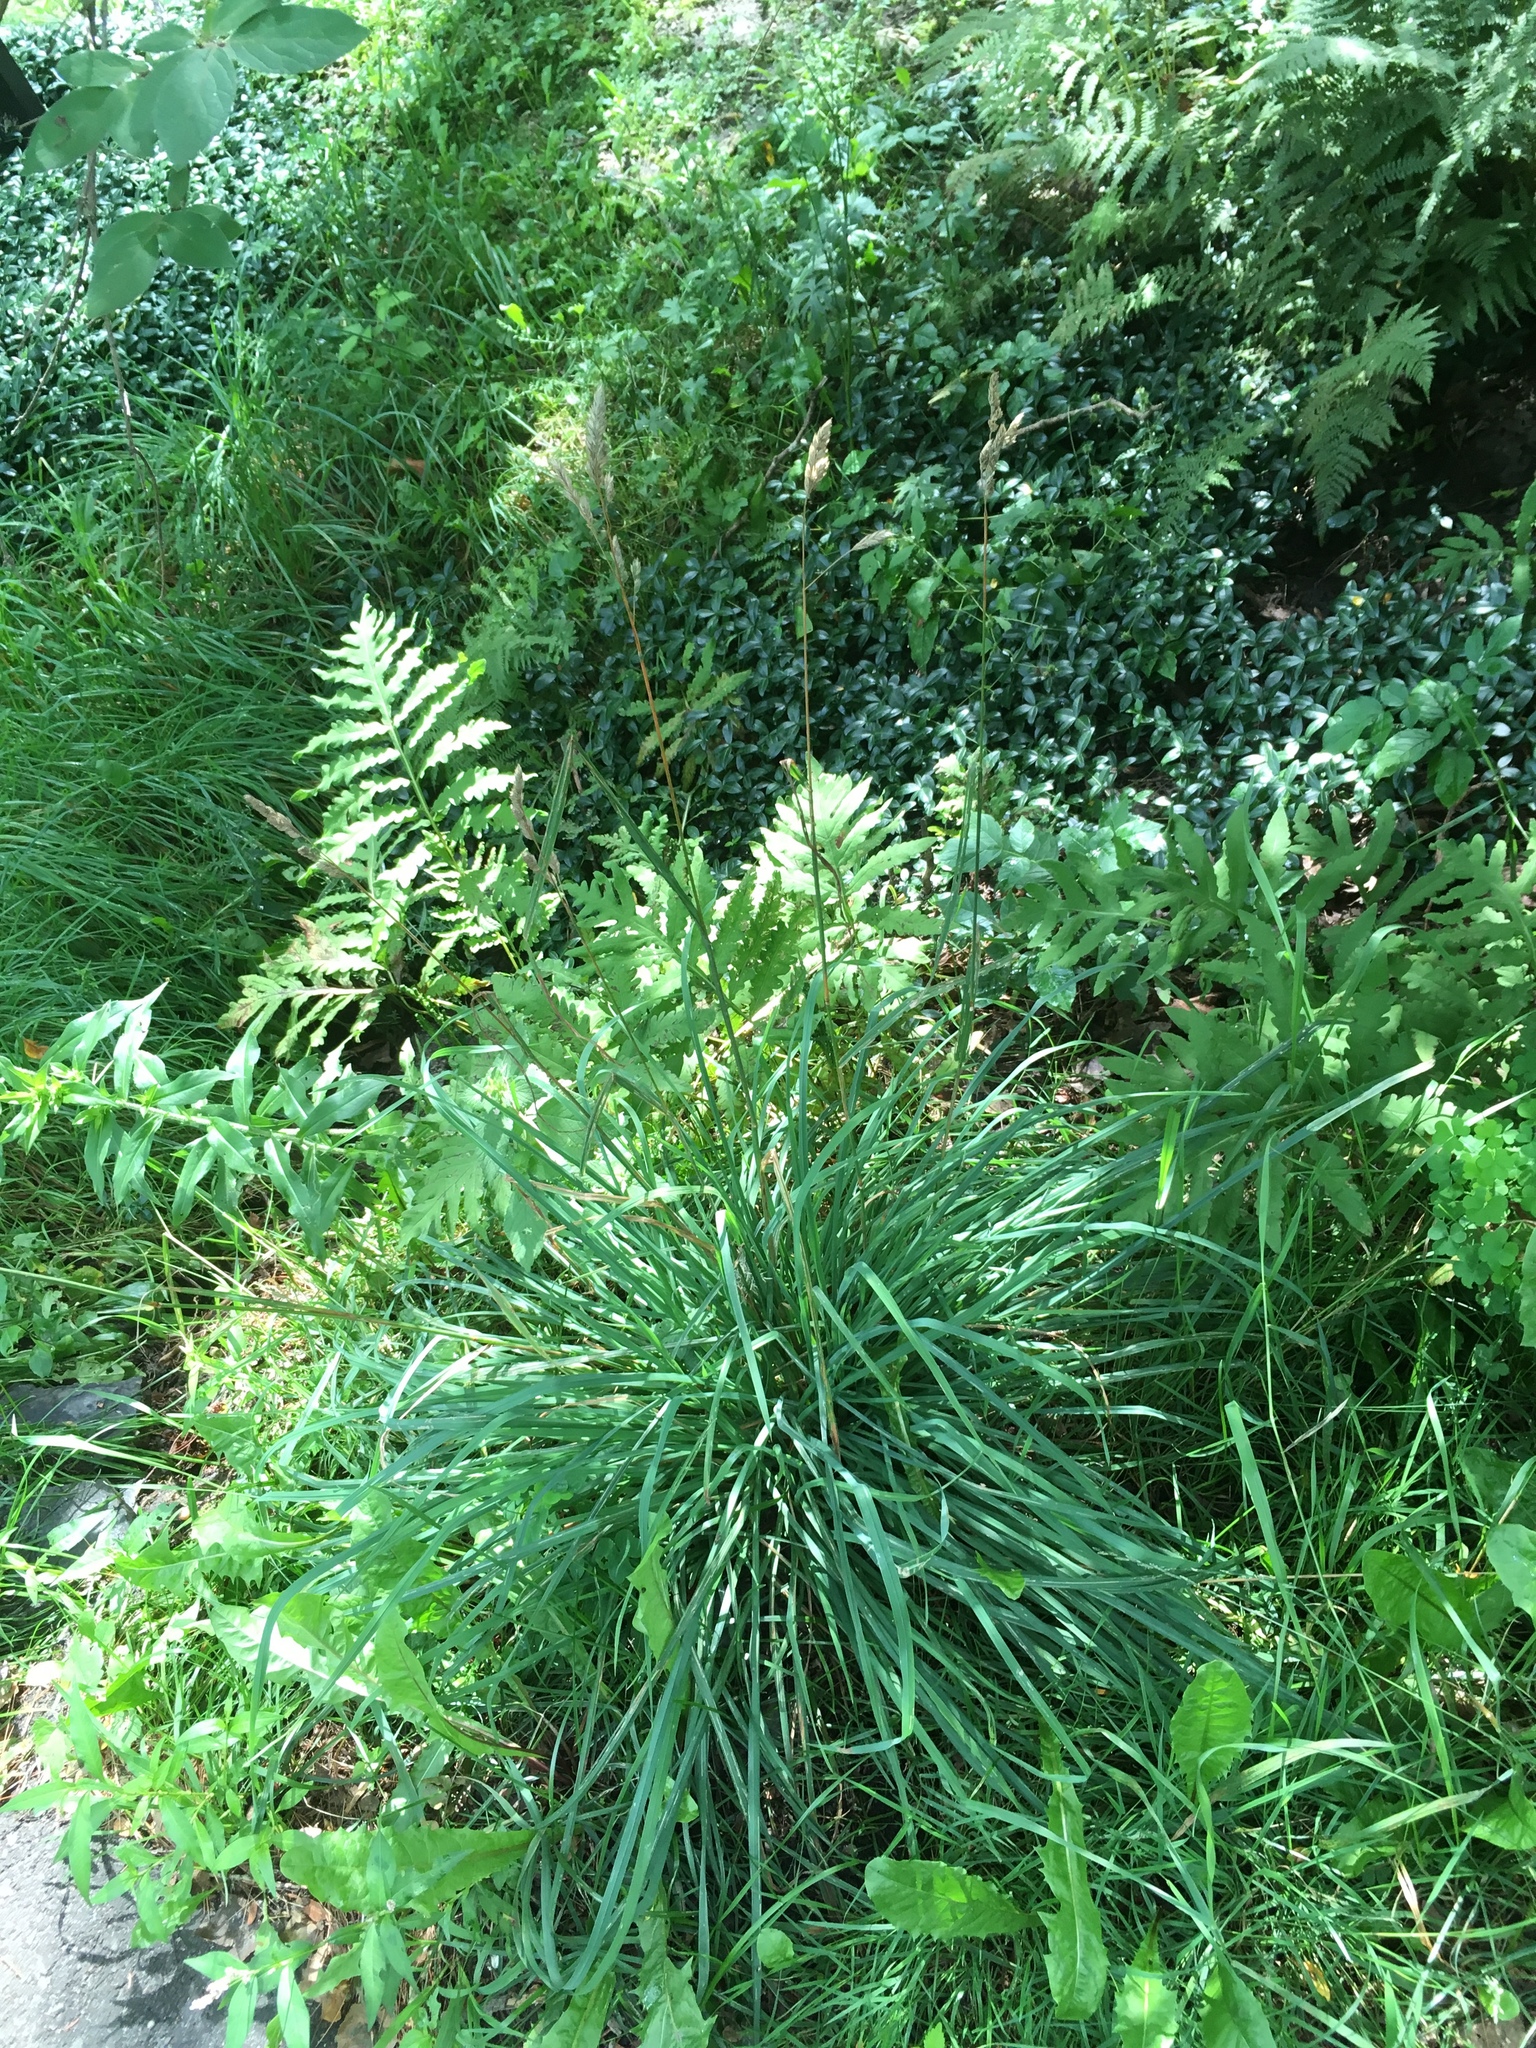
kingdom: Plantae
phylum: Tracheophyta
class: Liliopsida
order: Poales
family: Poaceae
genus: Dactylis
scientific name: Dactylis glomerata
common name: Orchardgrass
